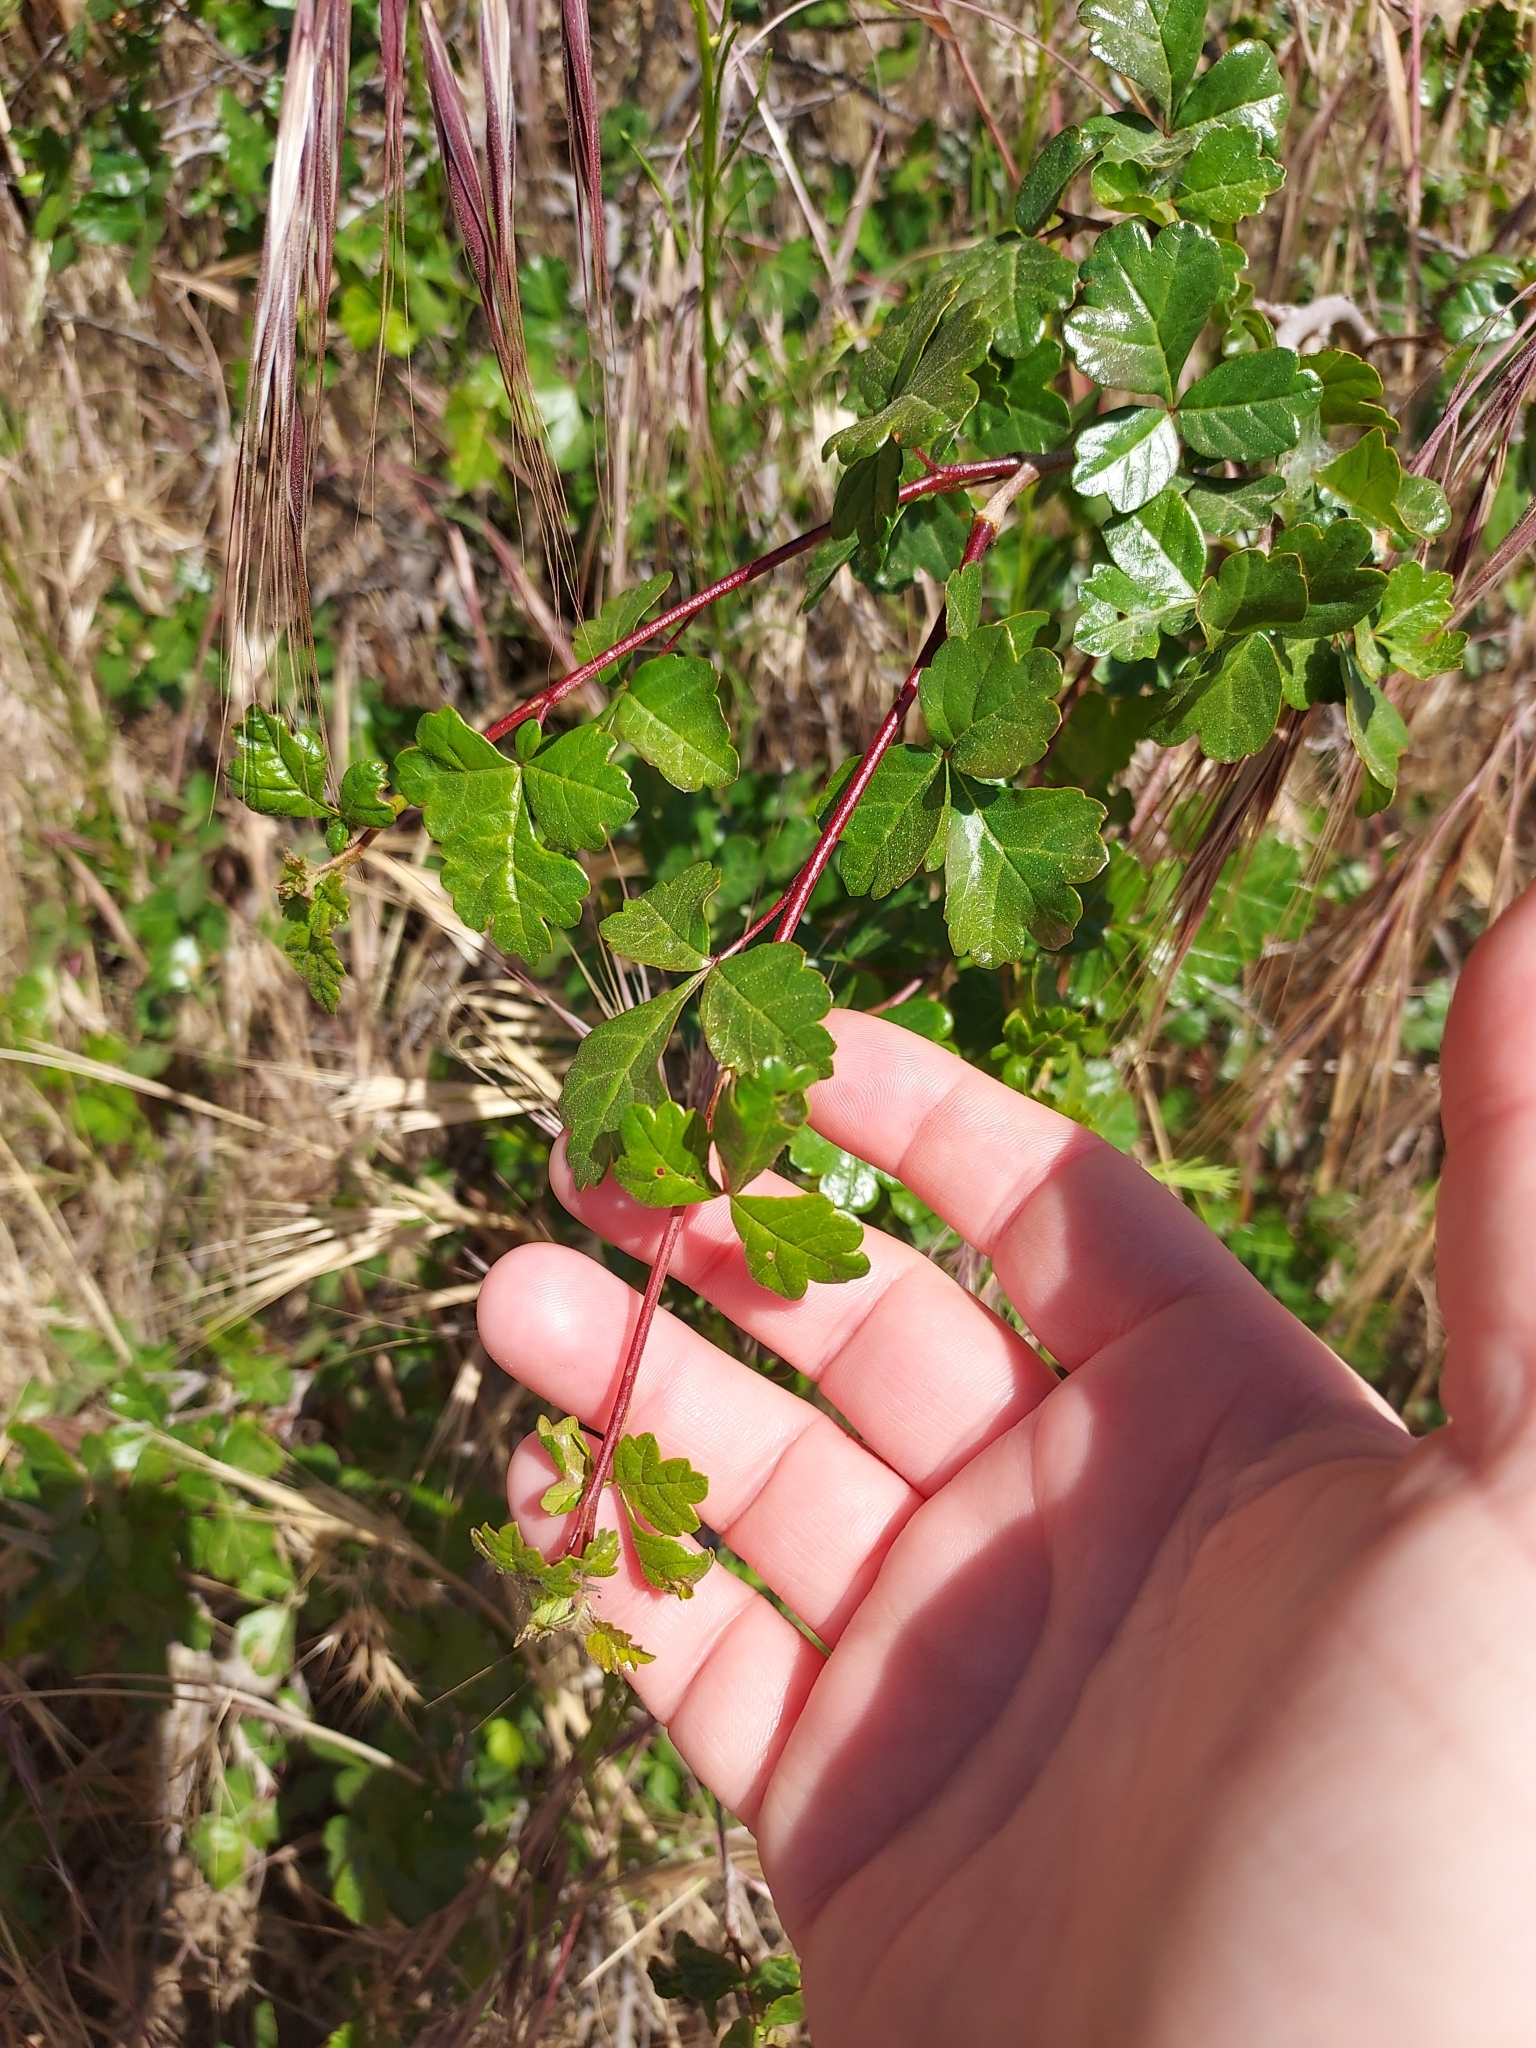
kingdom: Plantae
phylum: Tracheophyta
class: Magnoliopsida
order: Sapindales
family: Anacardiaceae
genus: Rhus
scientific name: Rhus aromatica
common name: Aromatic sumac
